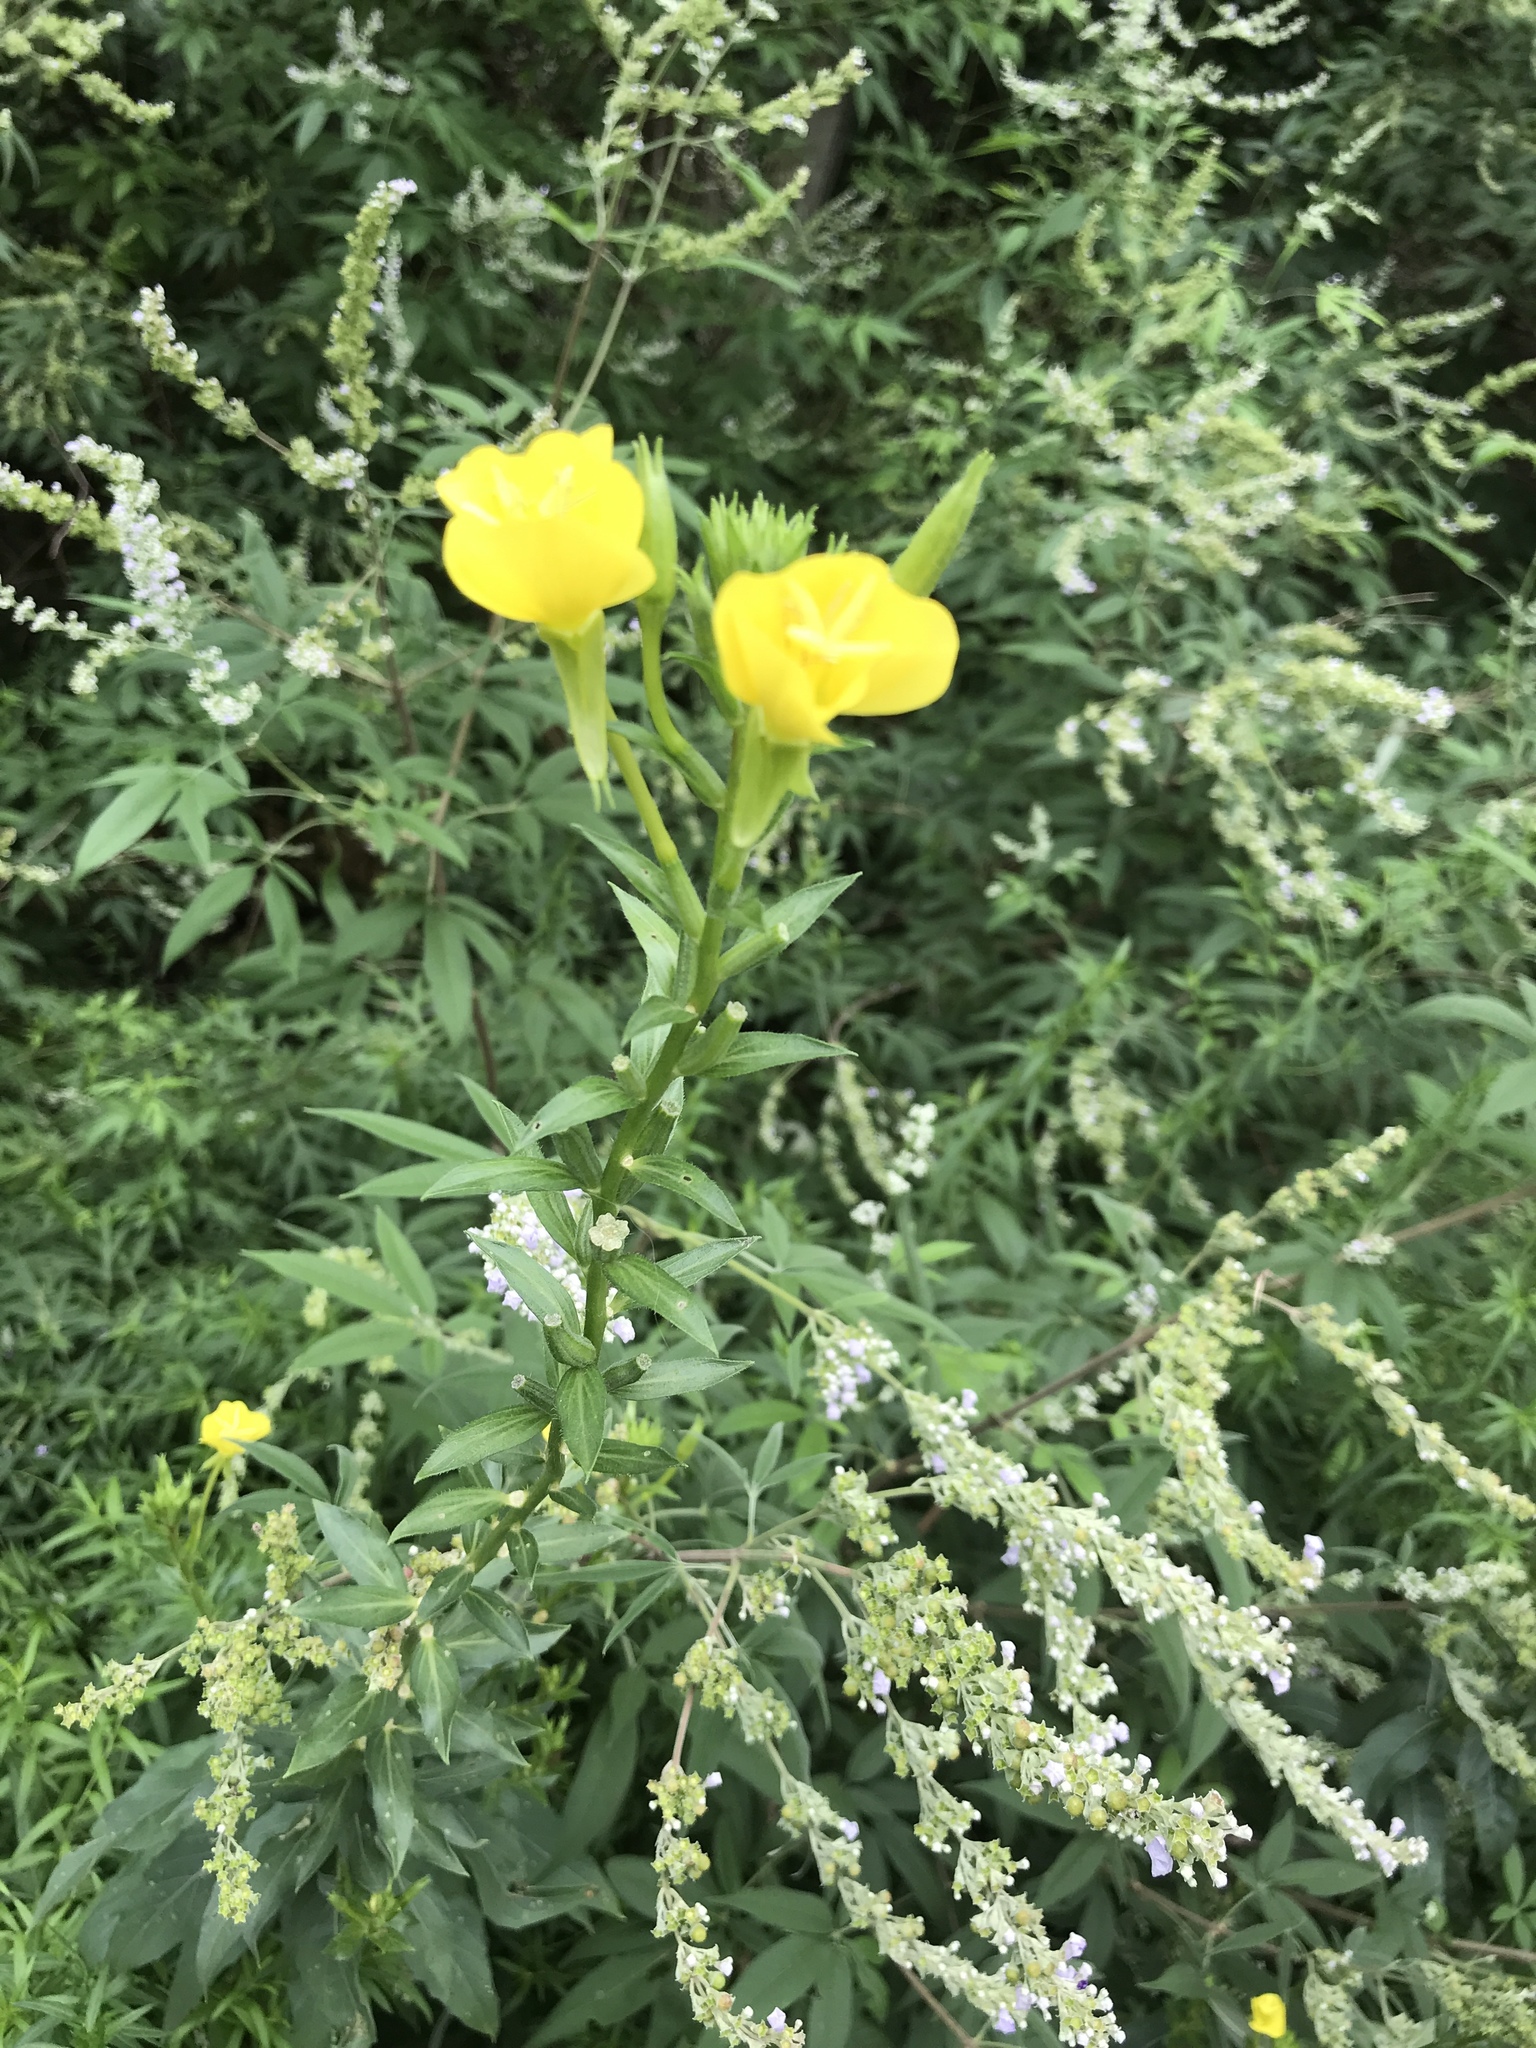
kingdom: Plantae
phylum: Tracheophyta
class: Magnoliopsida
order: Myrtales
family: Onagraceae
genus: Oenothera
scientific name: Oenothera biennis
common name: Common evening-primrose
